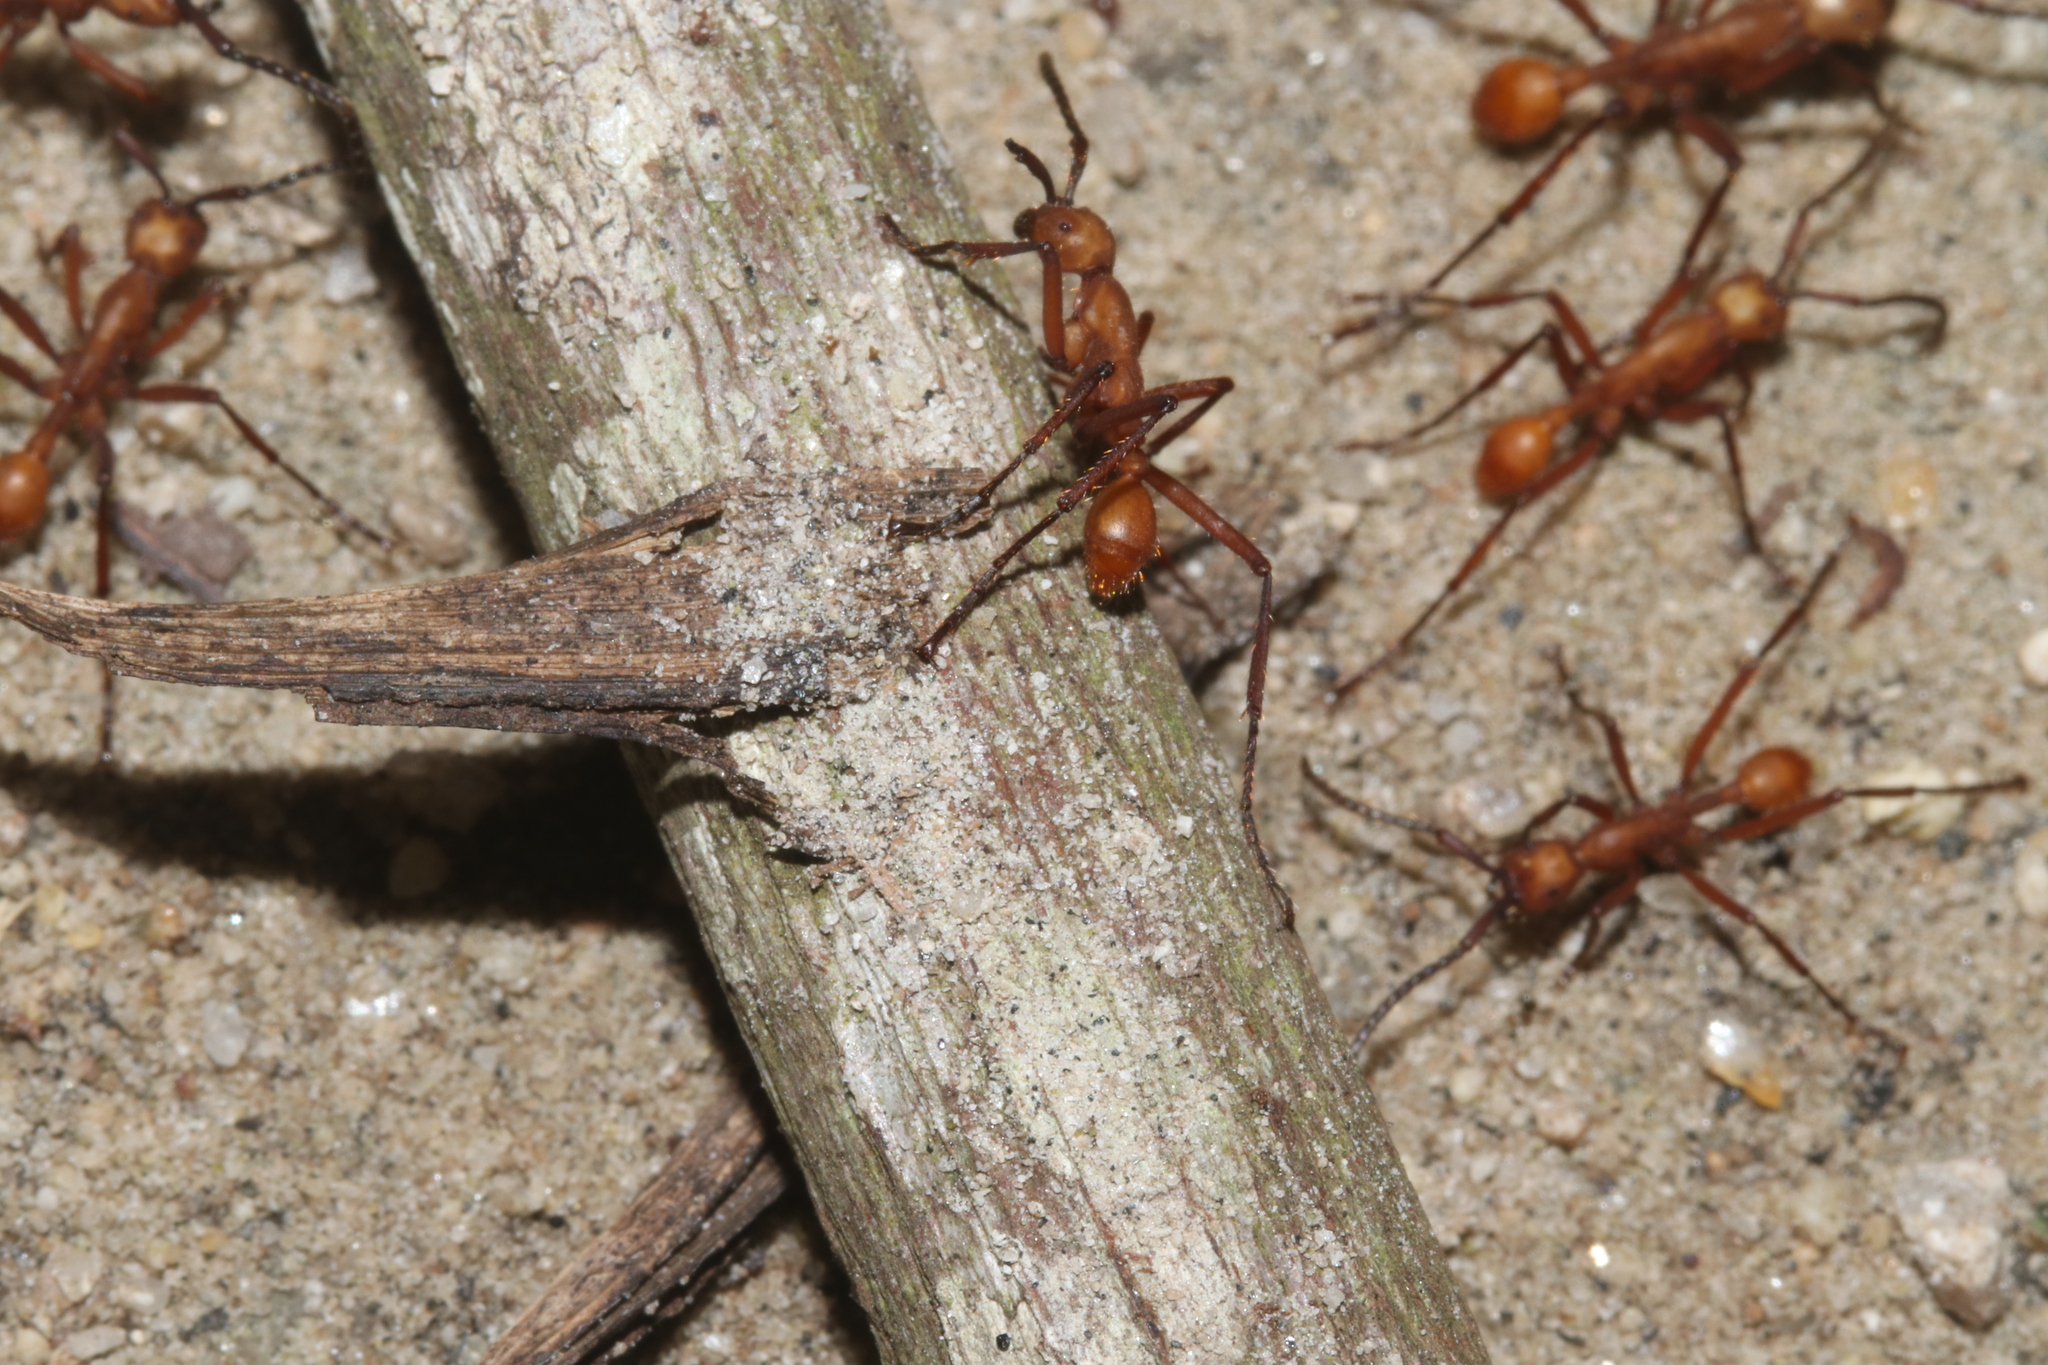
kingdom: Animalia
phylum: Arthropoda
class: Insecta
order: Hymenoptera
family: Formicidae
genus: Eciton
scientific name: Eciton
